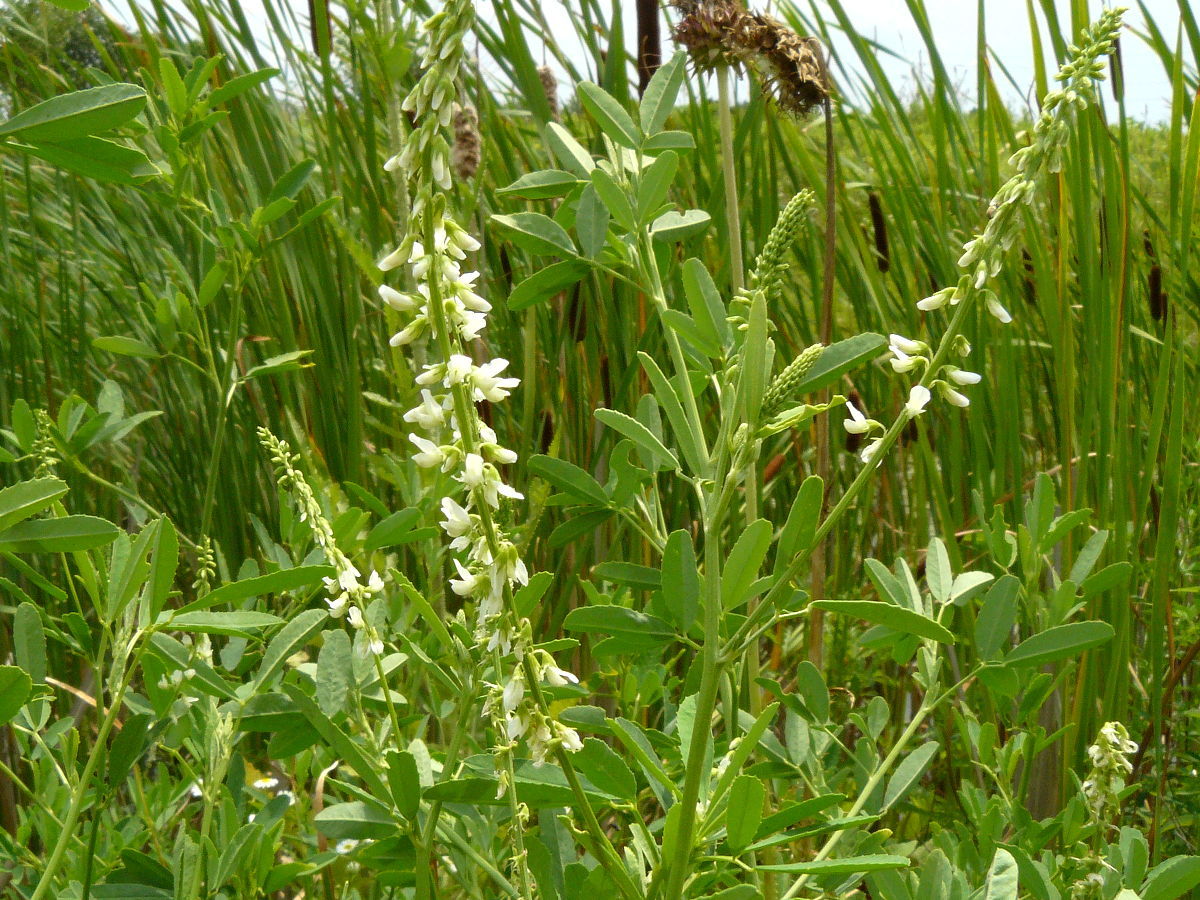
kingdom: Plantae
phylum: Tracheophyta
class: Magnoliopsida
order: Fabales
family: Fabaceae
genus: Melilotus
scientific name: Melilotus albus
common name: White melilot
